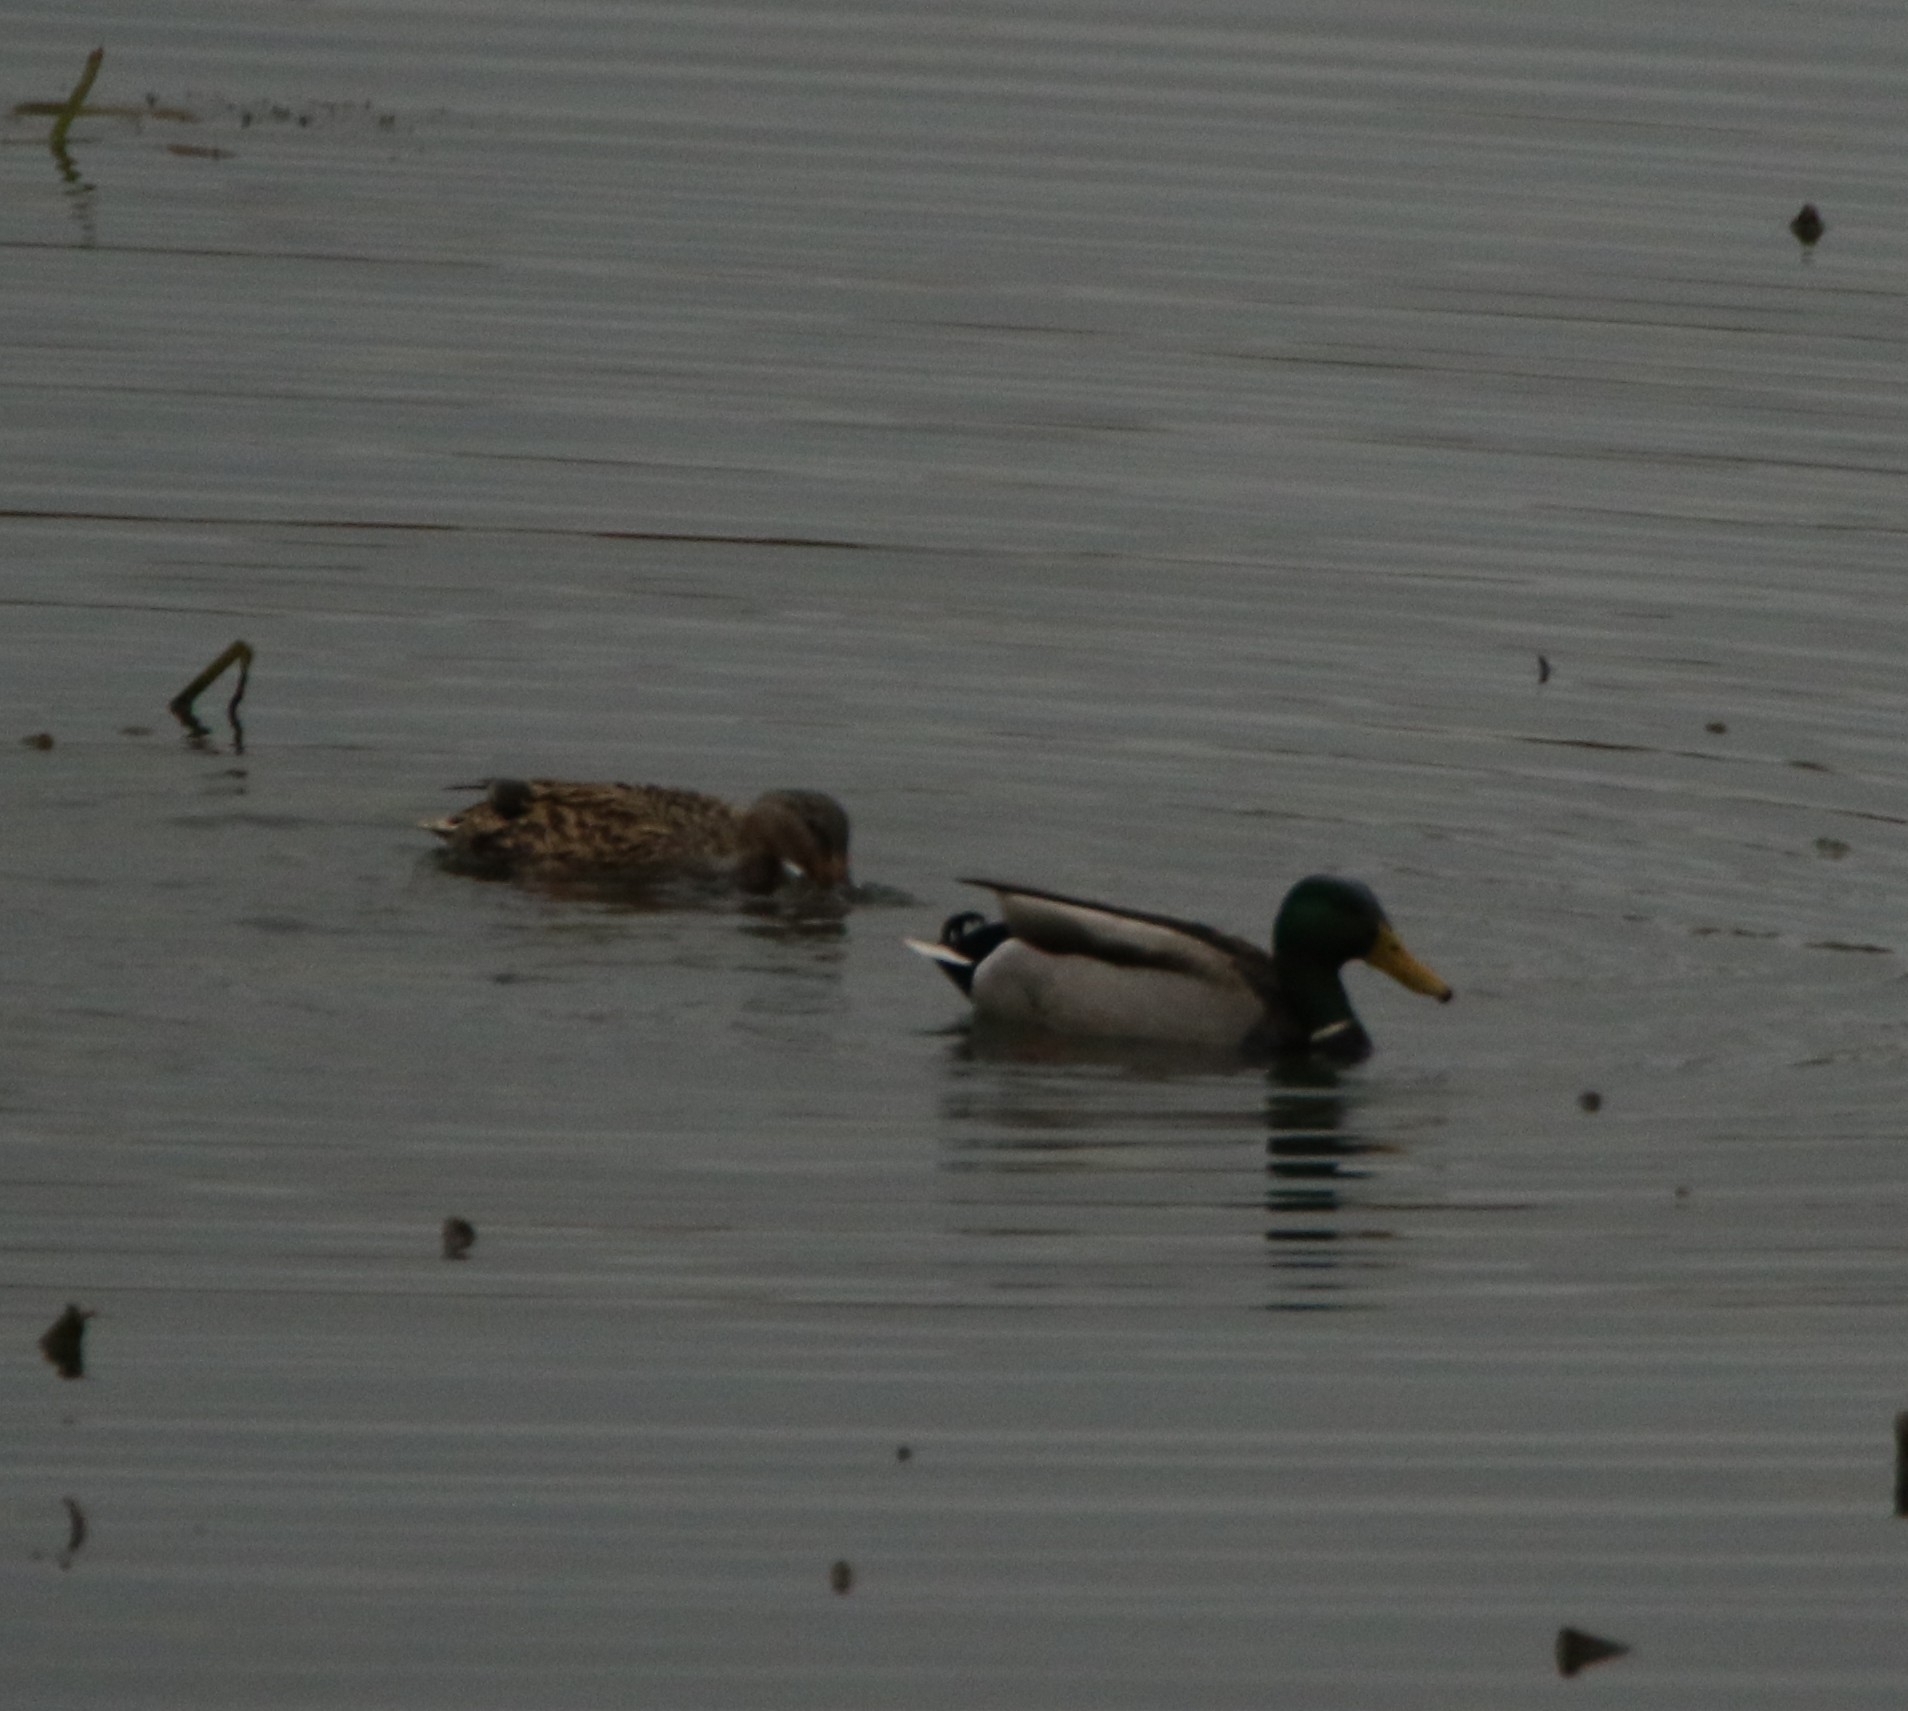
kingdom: Animalia
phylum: Chordata
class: Aves
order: Anseriformes
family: Anatidae
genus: Anas
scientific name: Anas platyrhynchos
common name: Mallard
